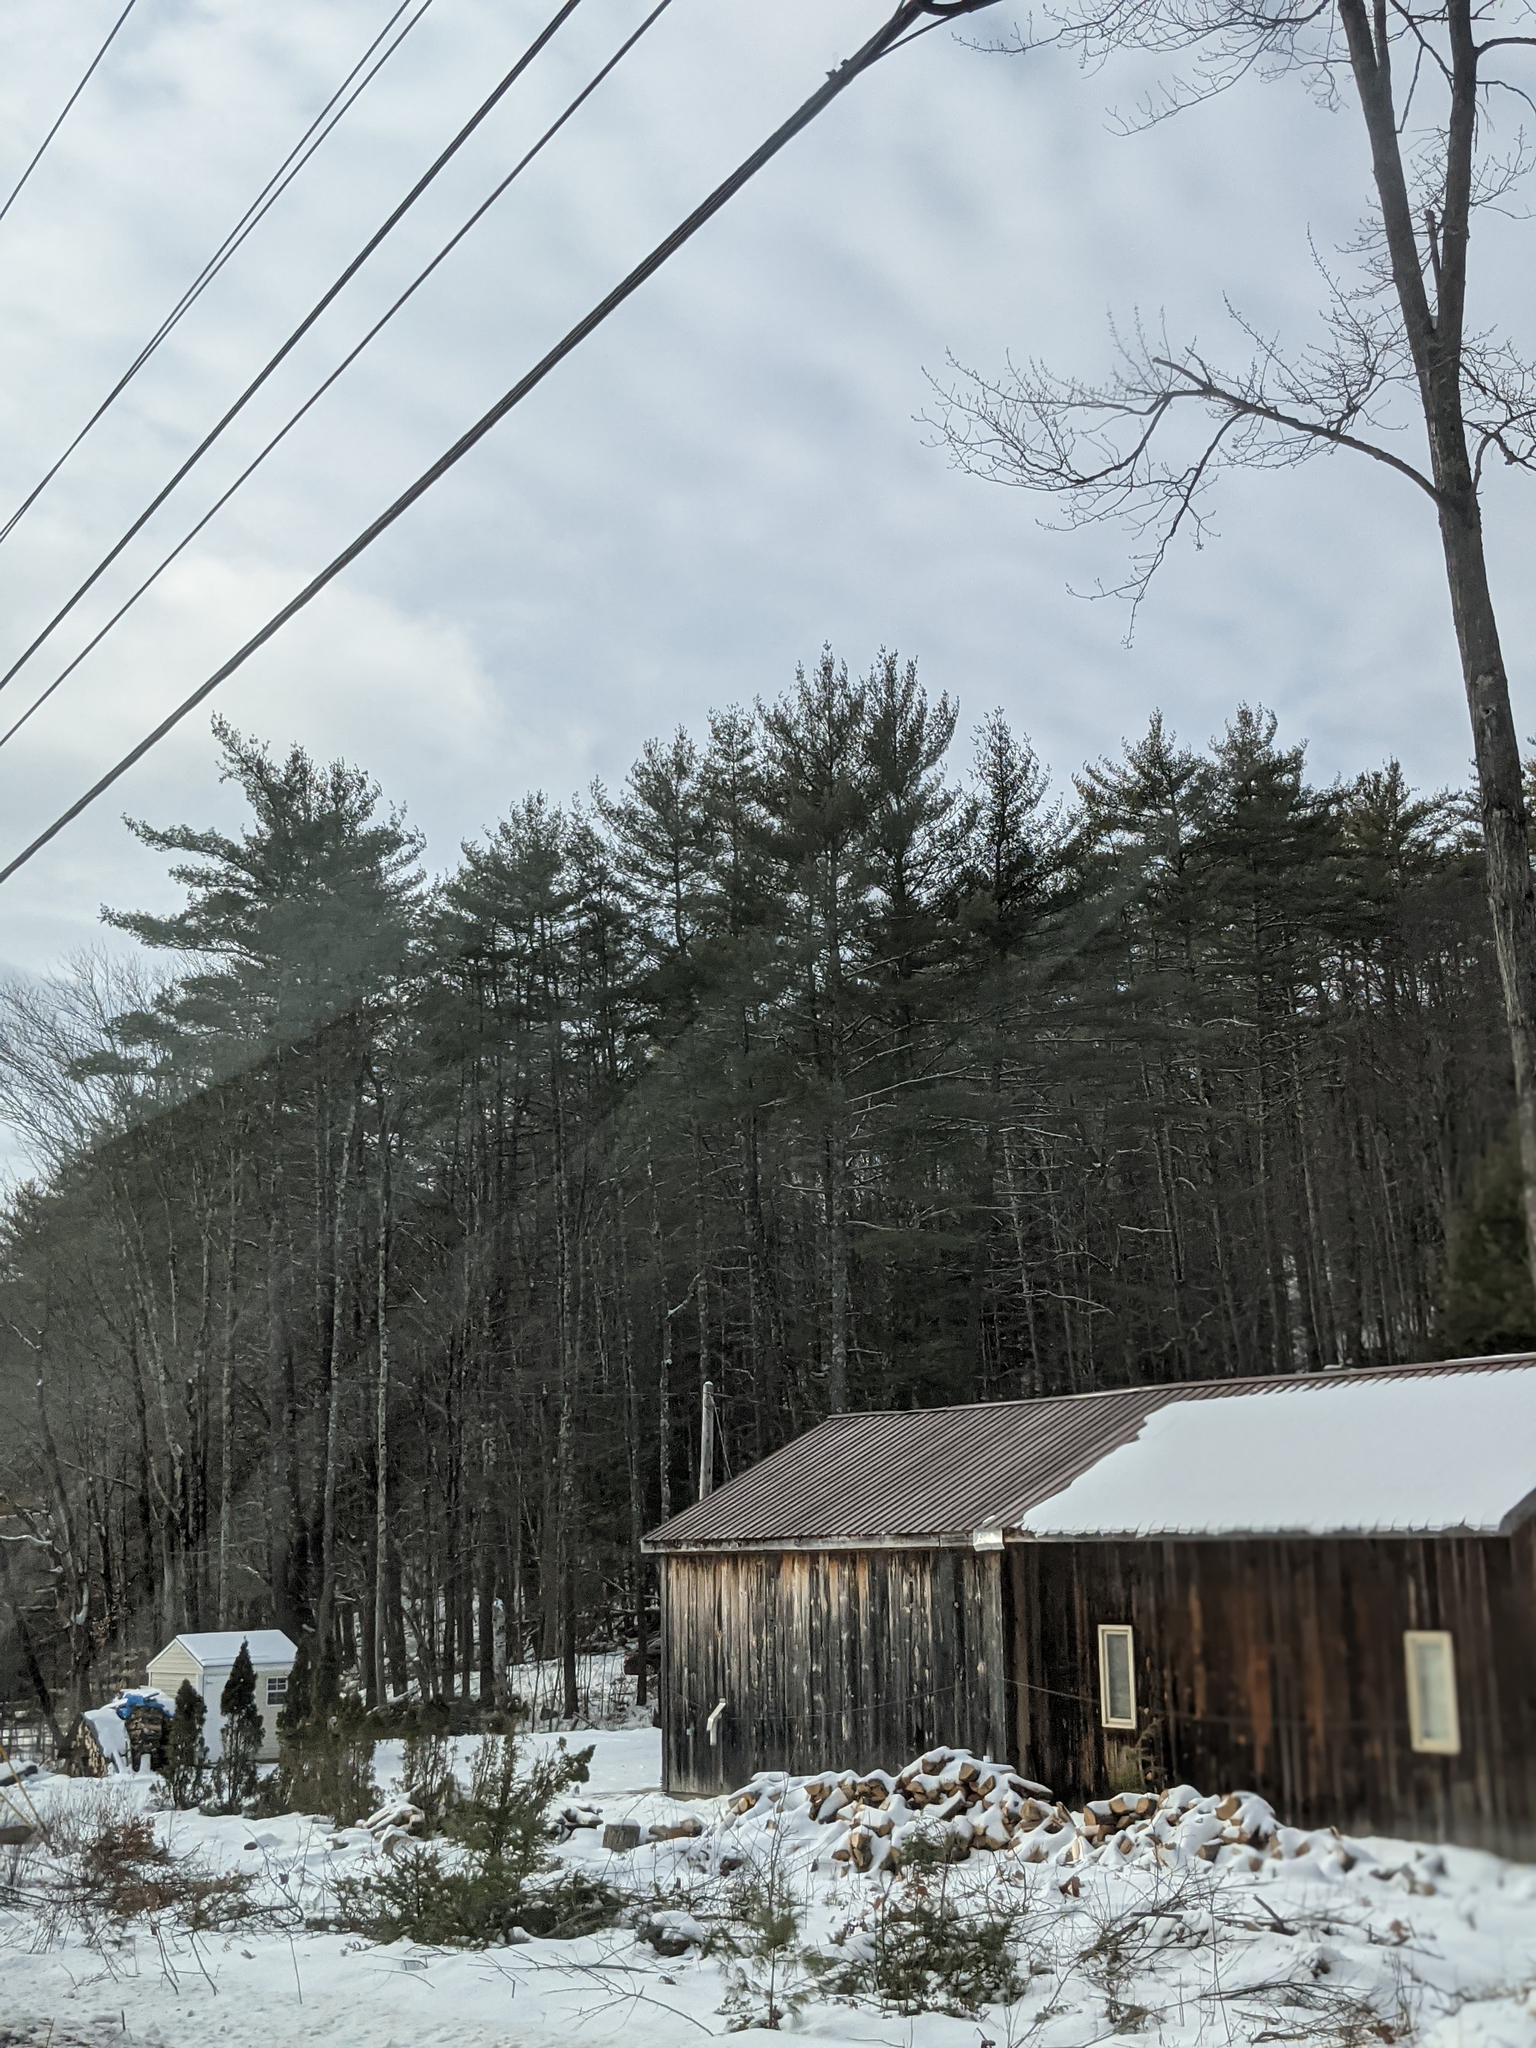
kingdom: Plantae
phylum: Tracheophyta
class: Pinopsida
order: Pinales
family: Pinaceae
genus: Pinus
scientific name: Pinus strobus
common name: Weymouth pine
